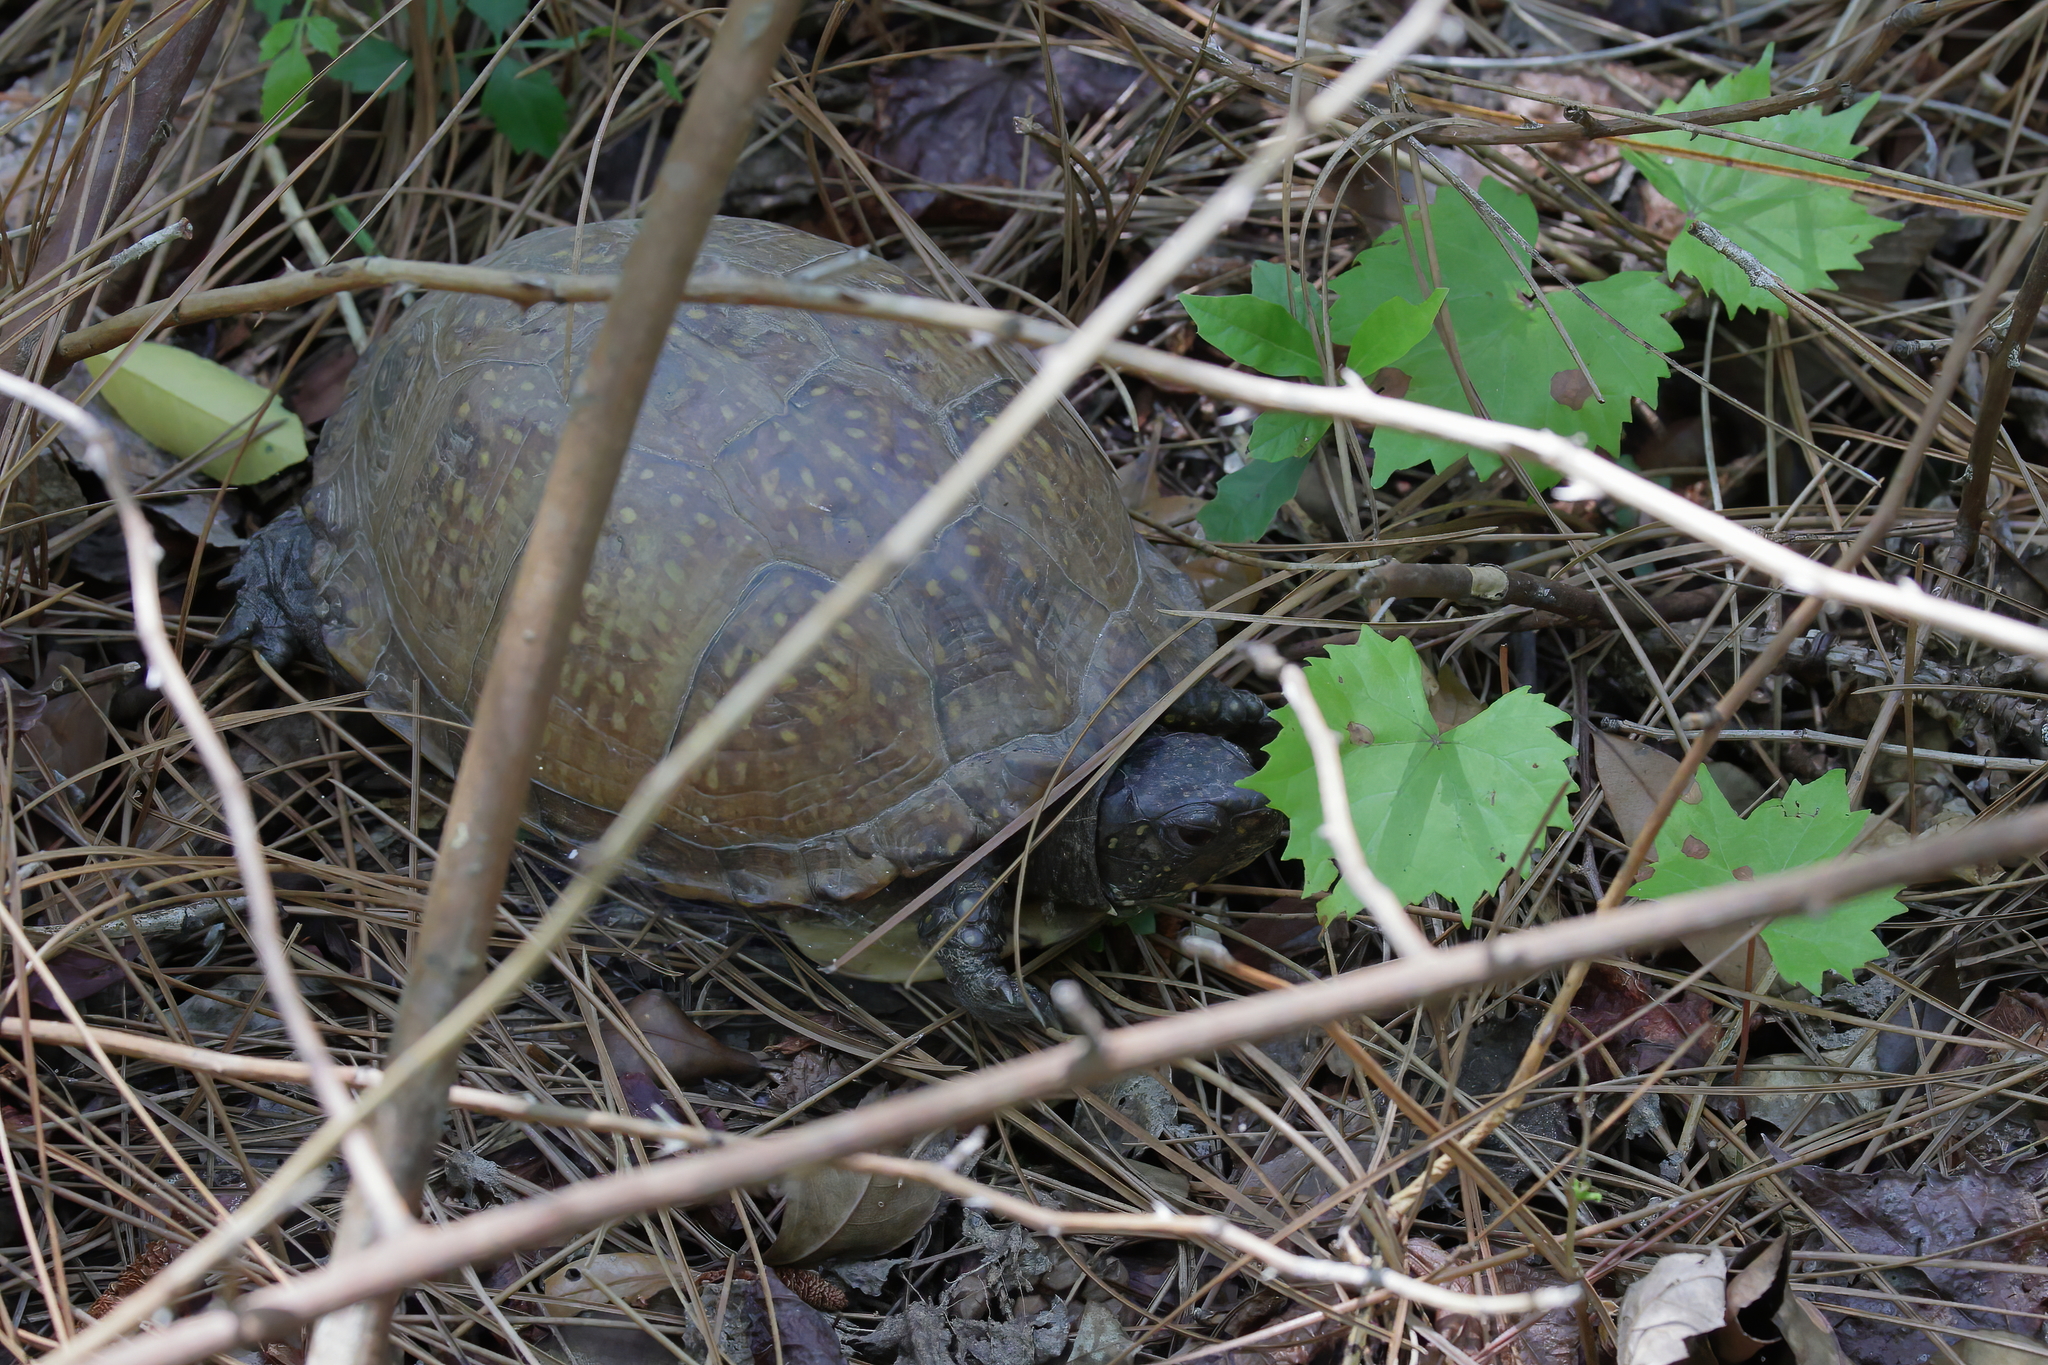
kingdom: Animalia
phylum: Chordata
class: Testudines
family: Emydidae
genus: Terrapene
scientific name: Terrapene carolina
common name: Common box turtle
